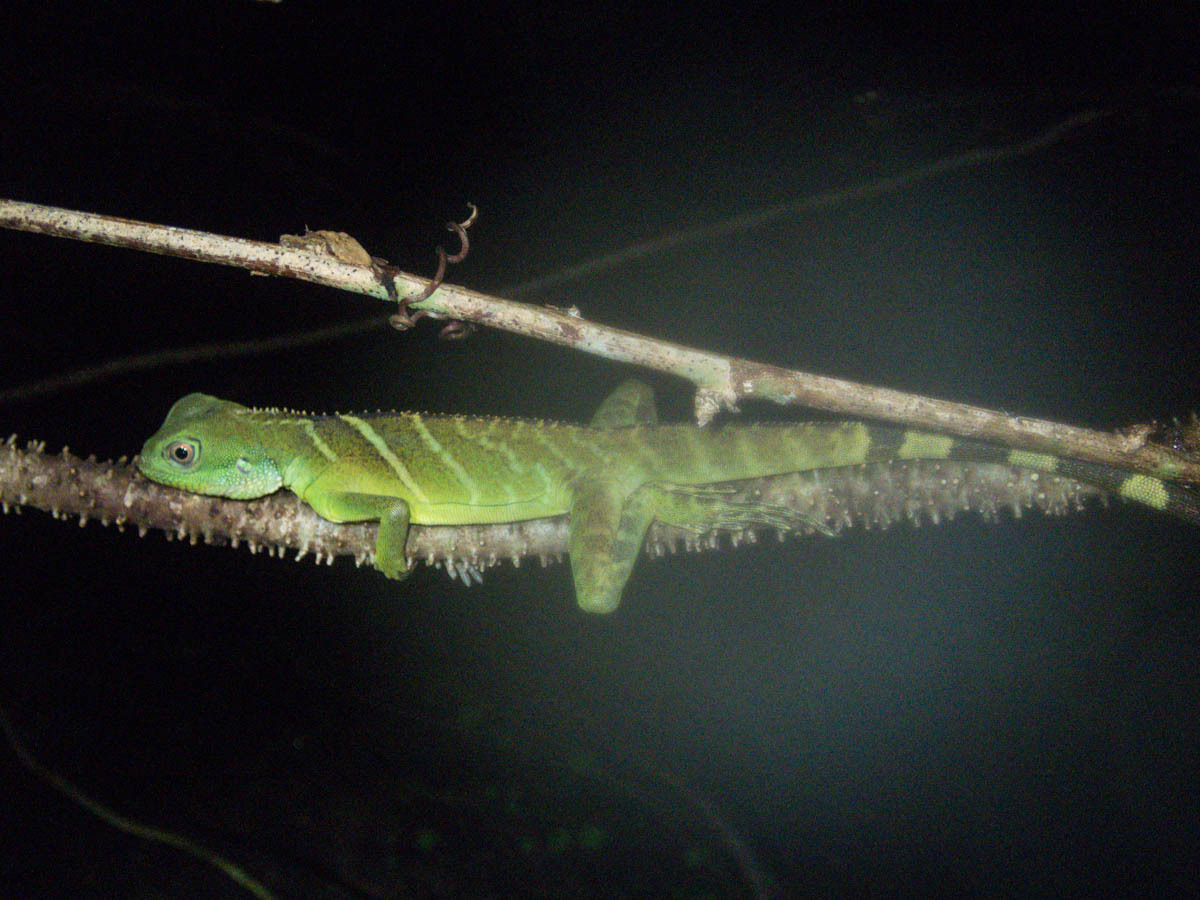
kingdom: Animalia
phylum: Chordata
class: Squamata
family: Agamidae
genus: Physignathus
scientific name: Physignathus cocincinus
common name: Asian water dragon
